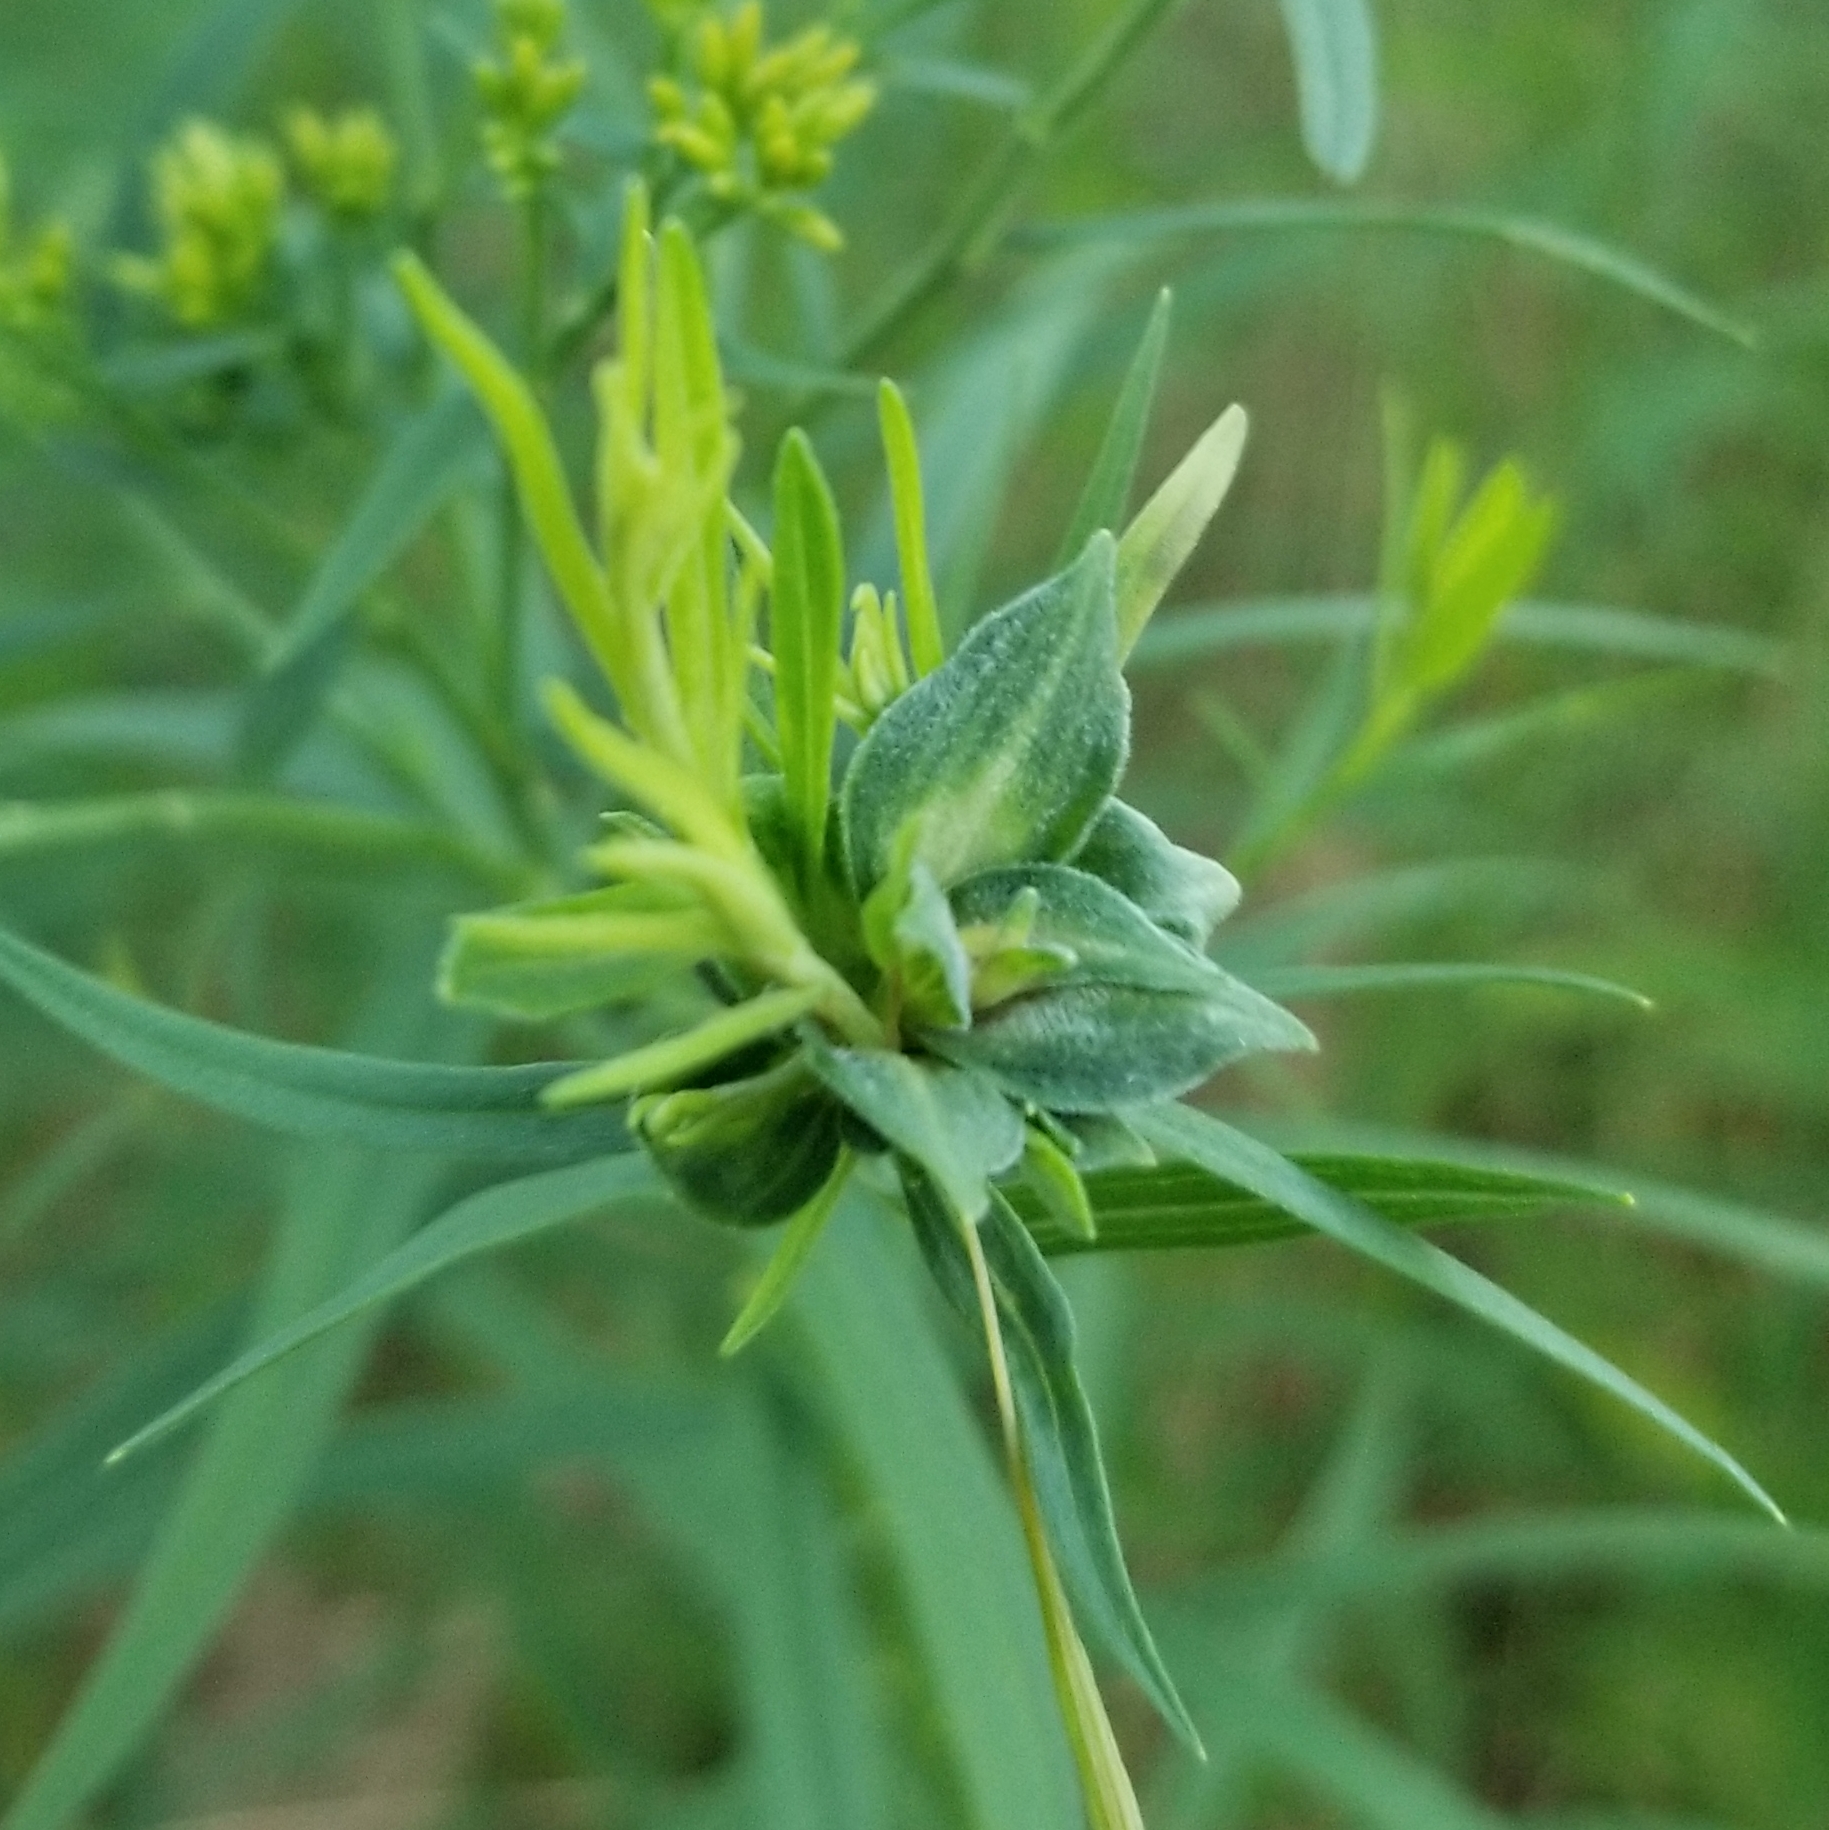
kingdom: Animalia
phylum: Arthropoda
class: Insecta
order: Diptera
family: Cecidomyiidae
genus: Asphondylia
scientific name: Asphondylia pseudorosa
